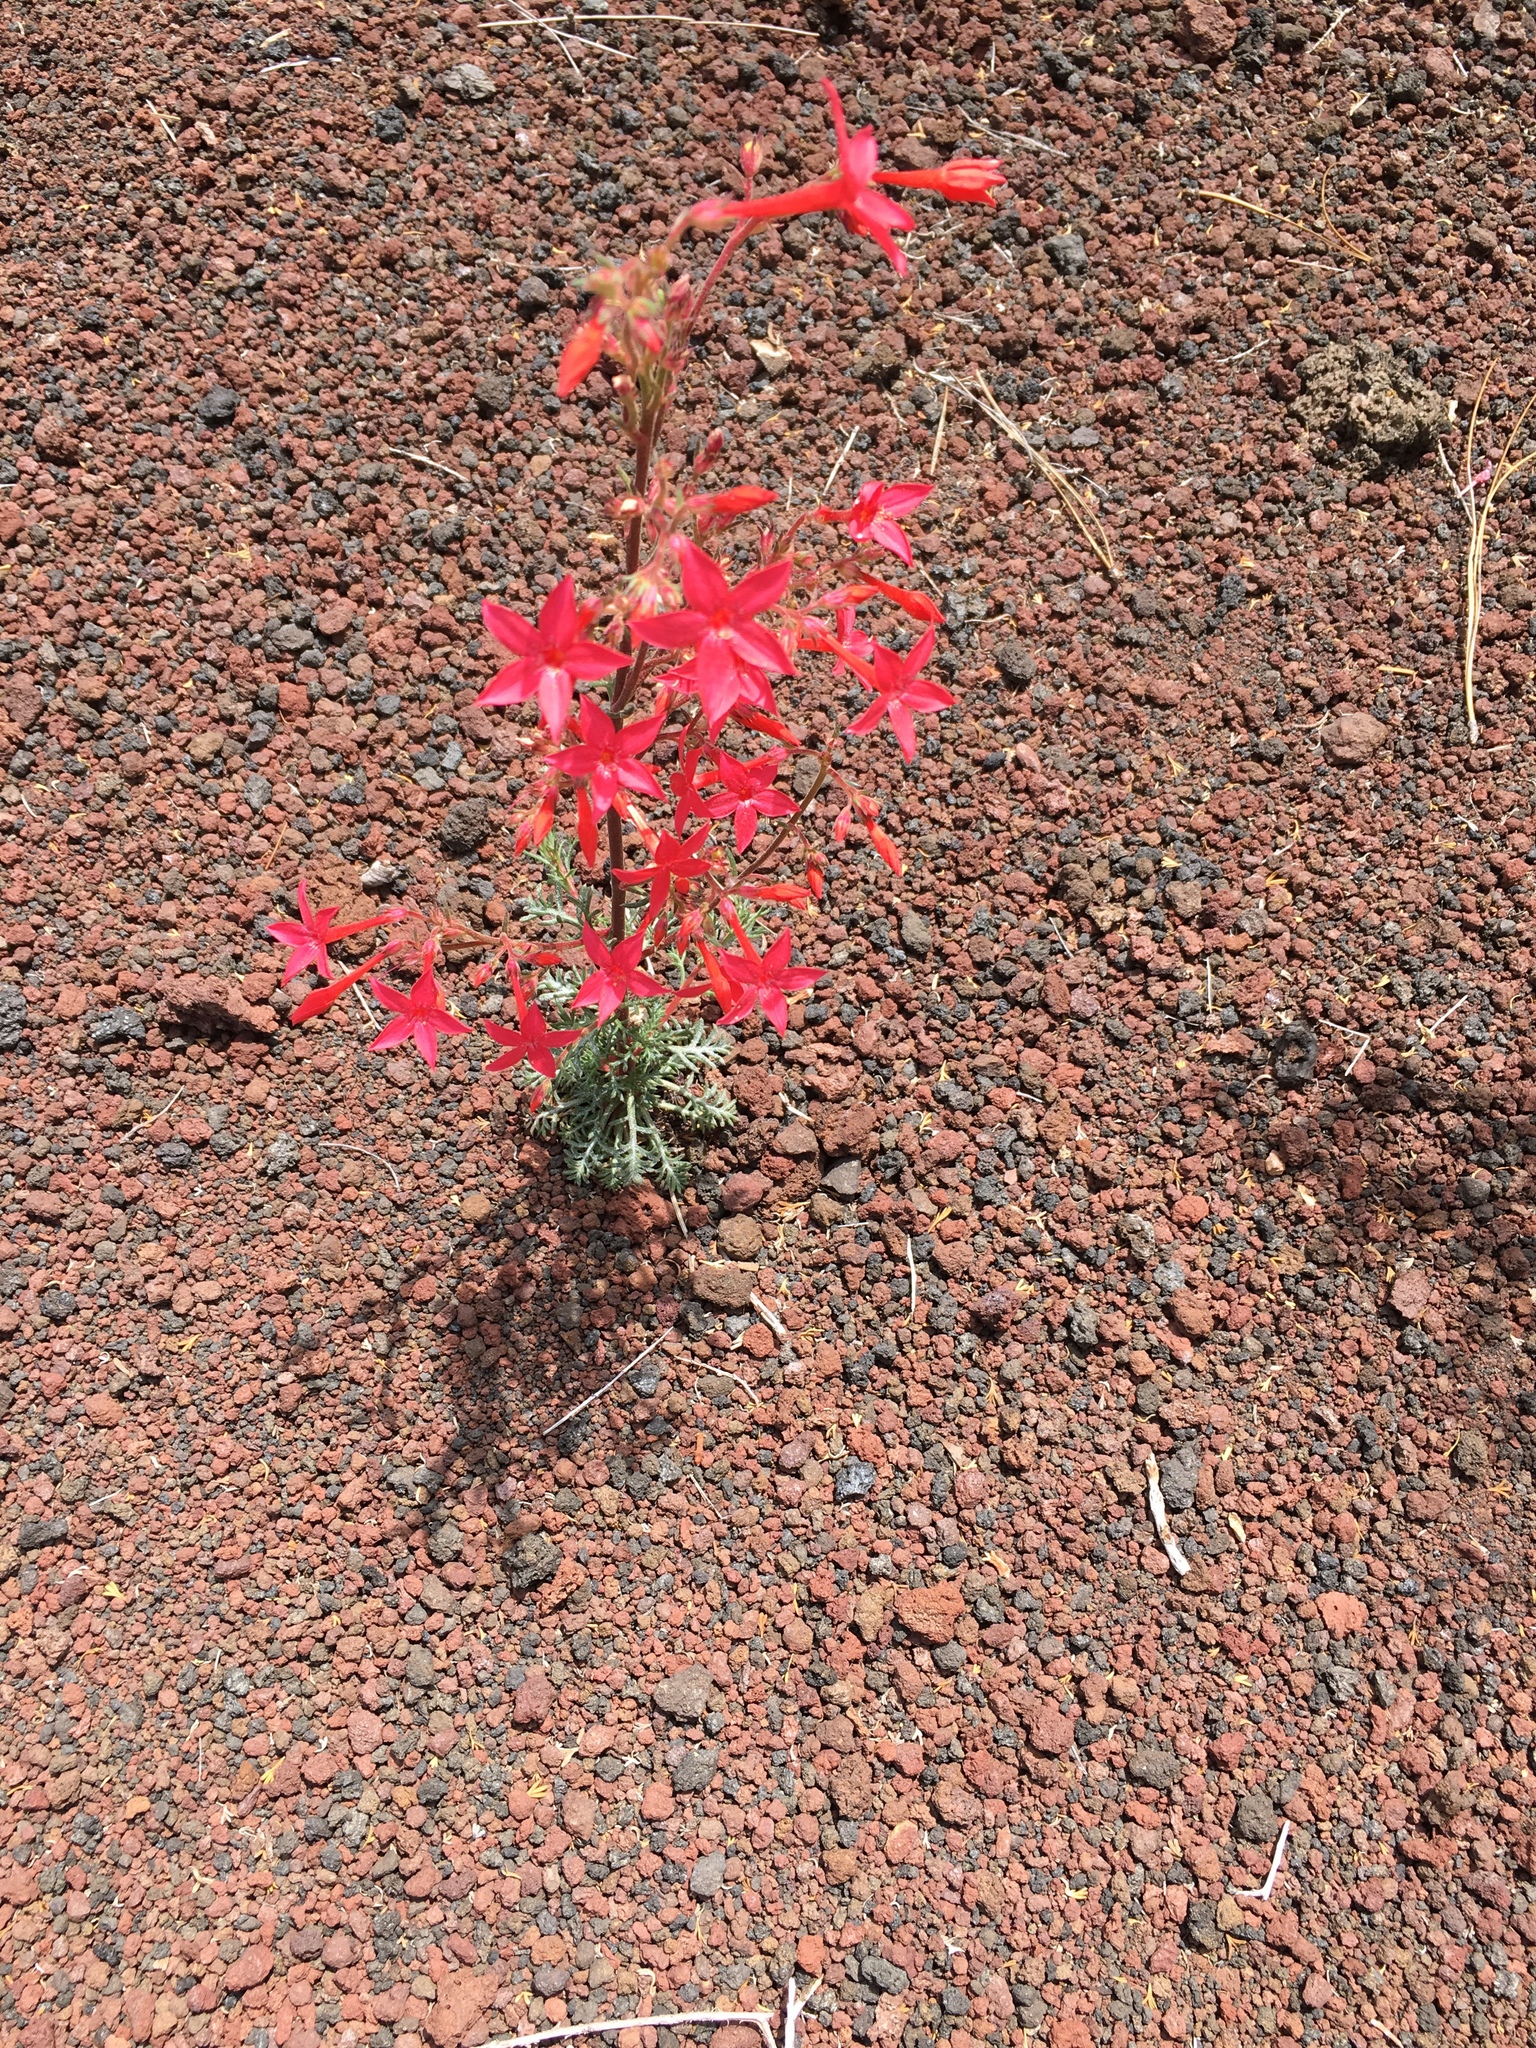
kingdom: Plantae
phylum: Tracheophyta
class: Magnoliopsida
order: Ericales
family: Polemoniaceae
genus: Ipomopsis
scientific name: Ipomopsis arizonica
